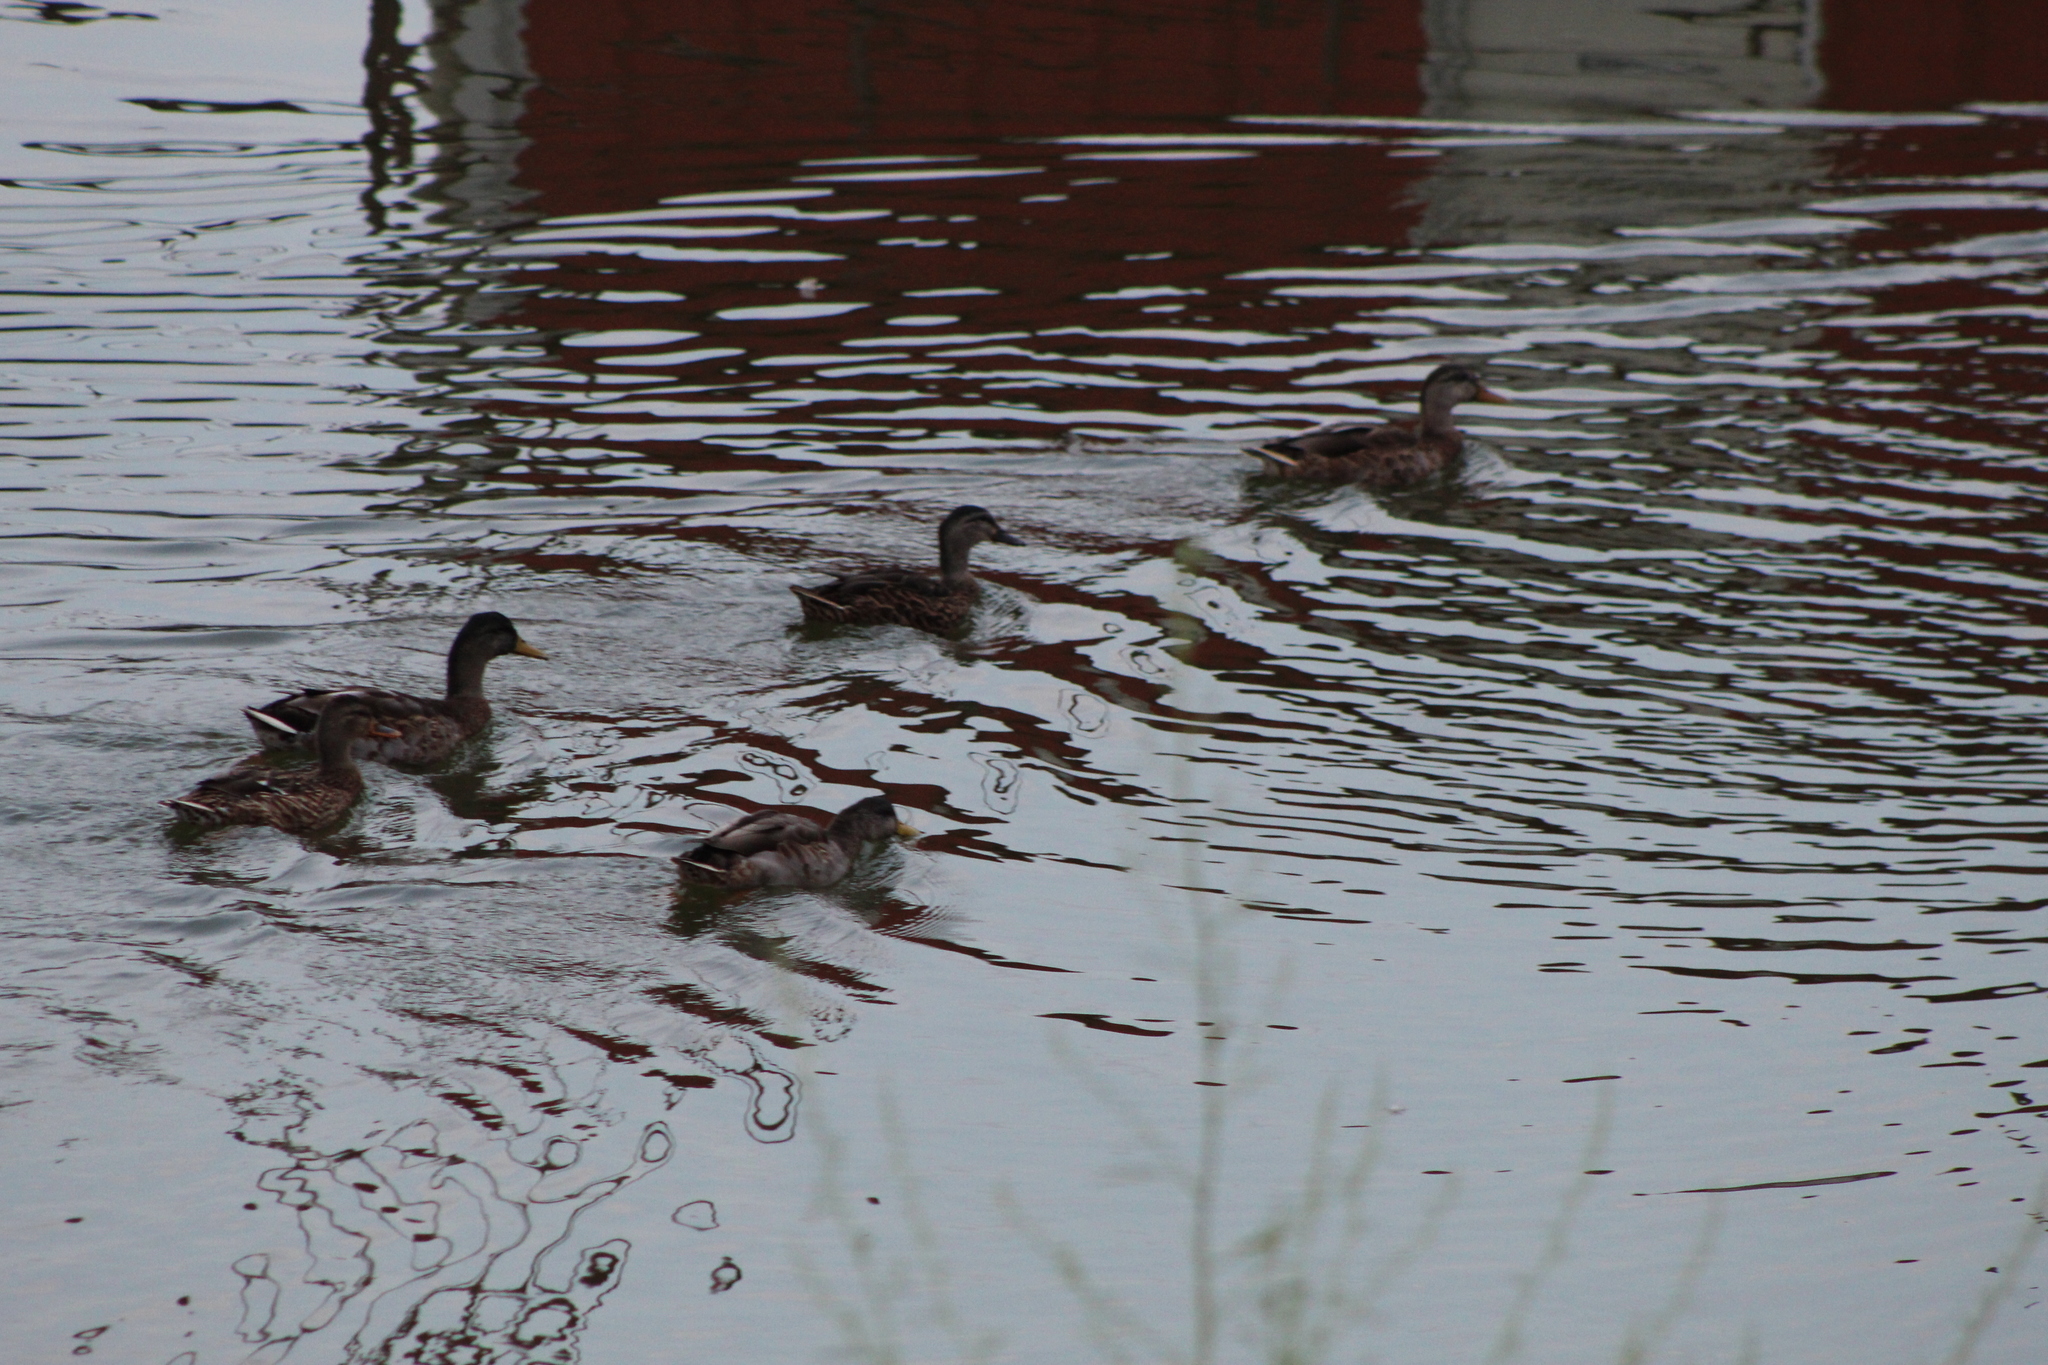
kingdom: Animalia
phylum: Chordata
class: Aves
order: Anseriformes
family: Anatidae
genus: Anas
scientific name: Anas platyrhynchos
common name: Mallard
